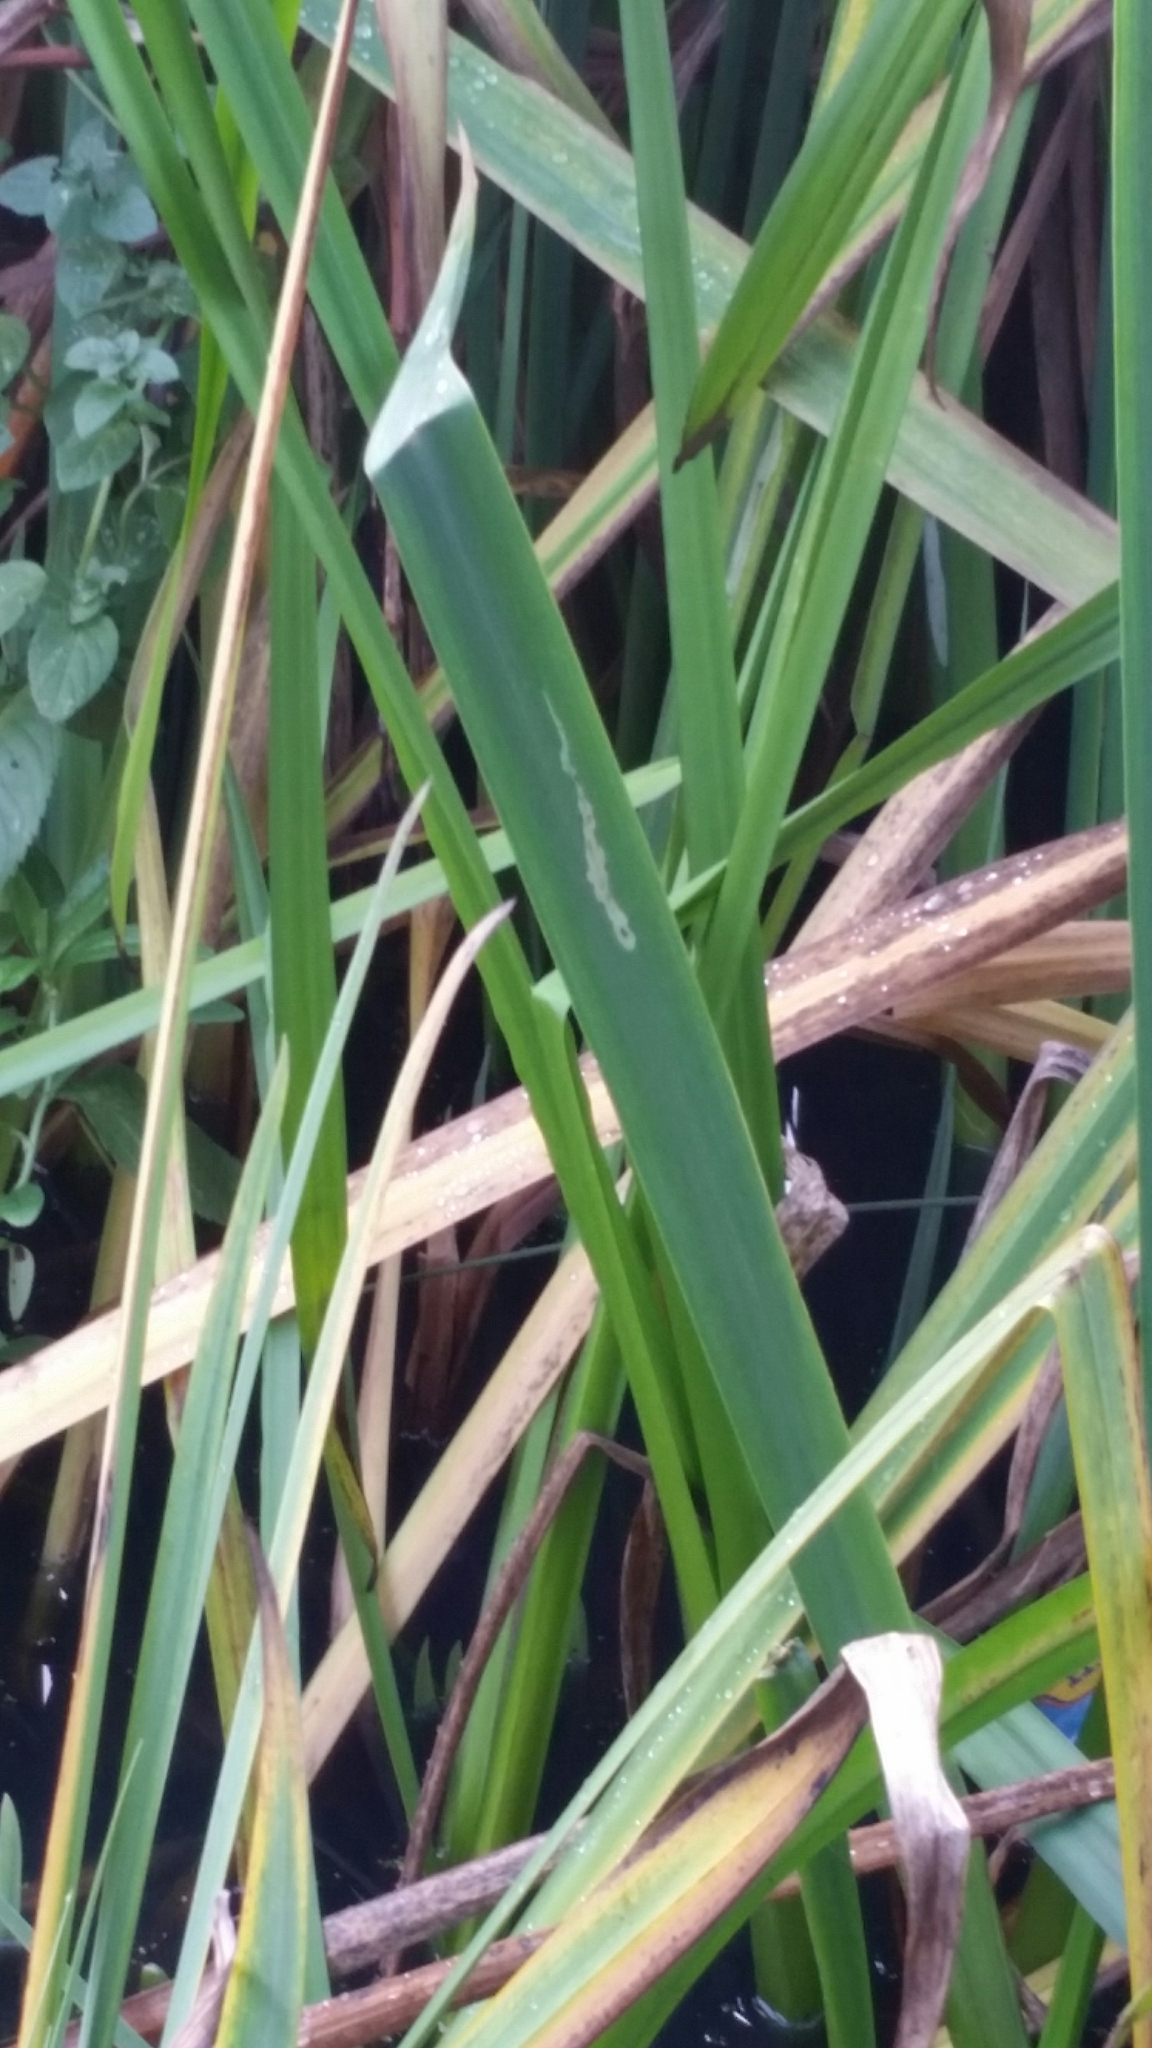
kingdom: Animalia
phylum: Arthropoda
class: Insecta
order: Diptera
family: Agromyzidae
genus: Cerodontha
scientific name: Cerodontha ircos
